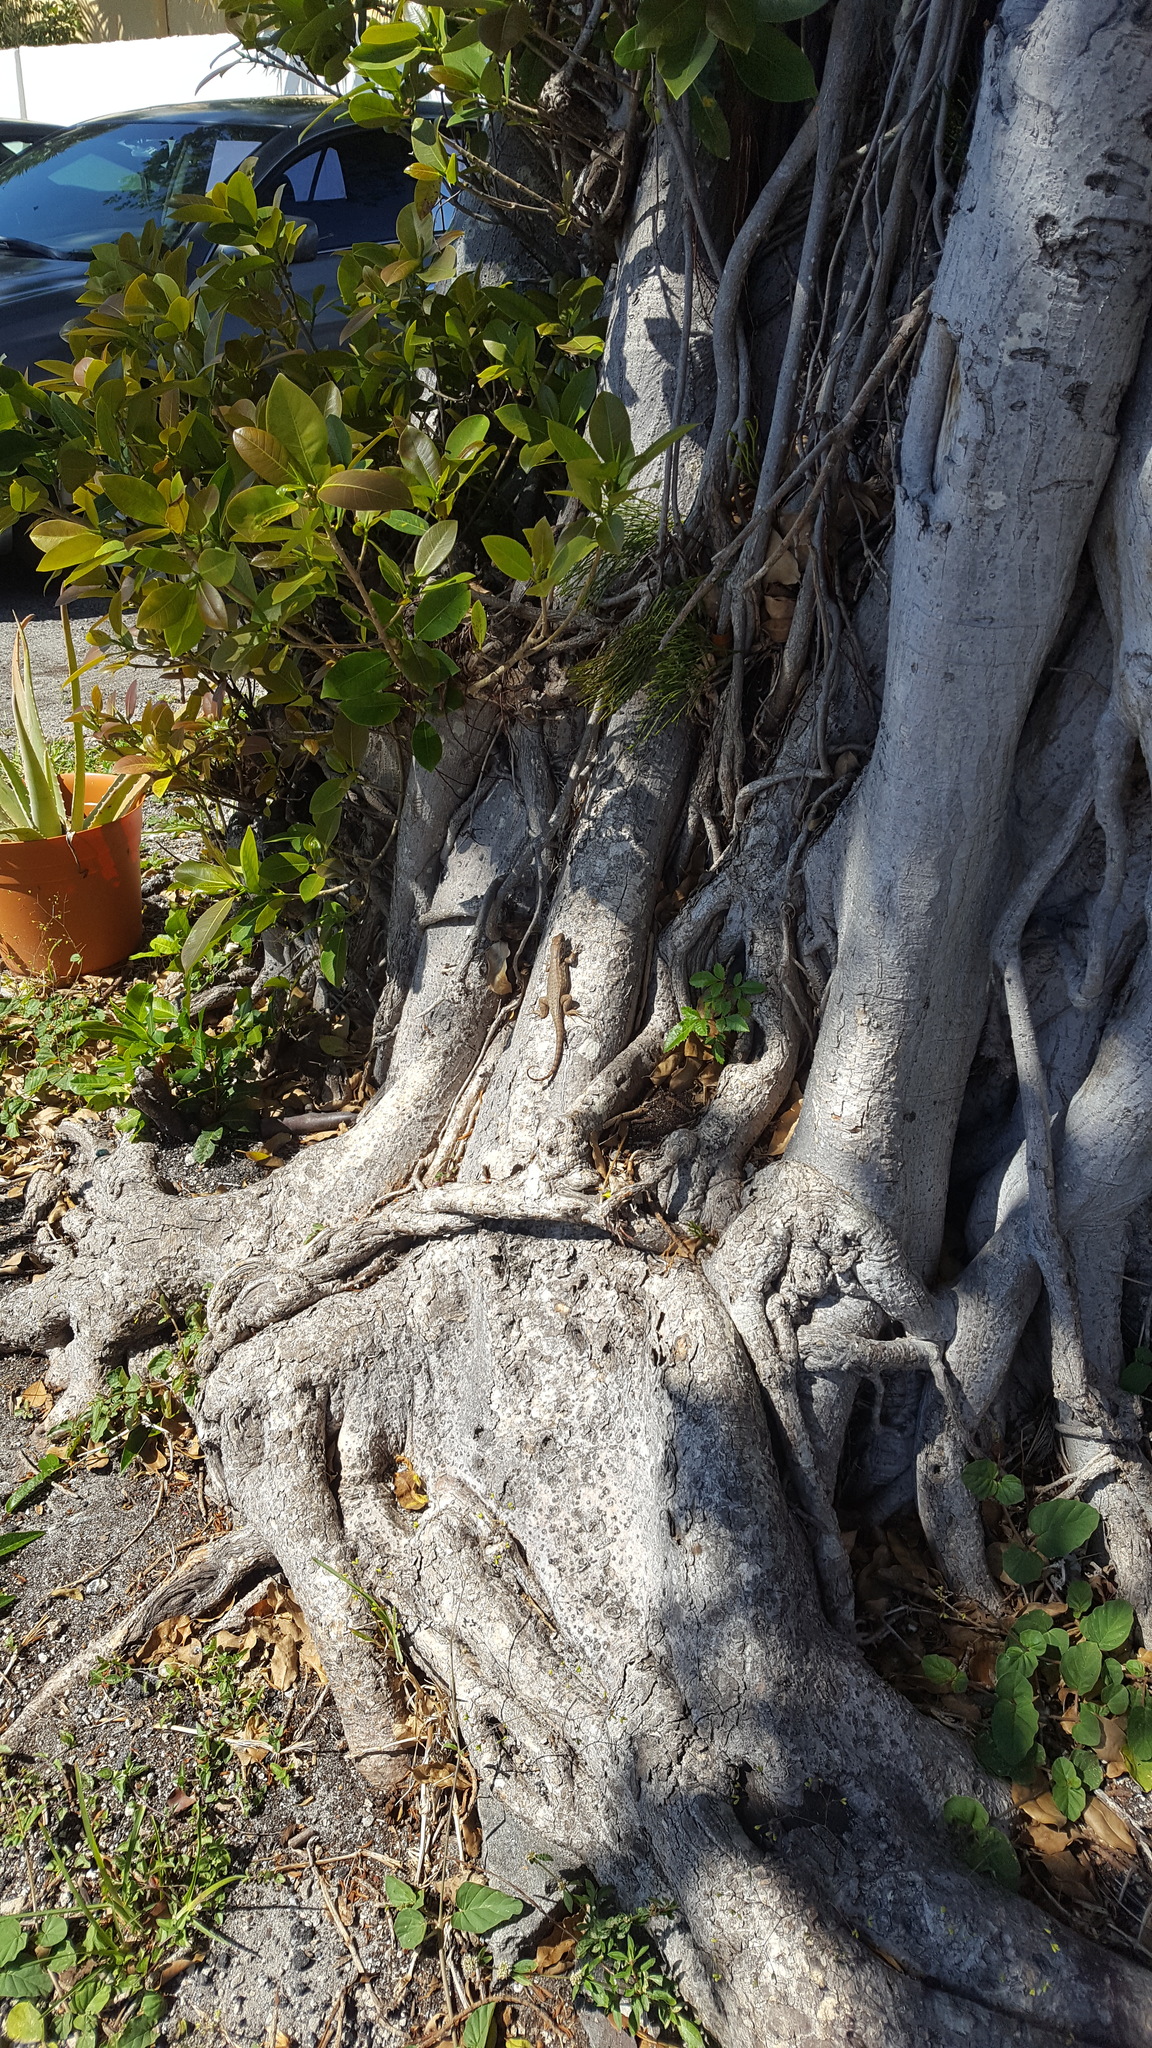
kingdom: Animalia
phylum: Chordata
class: Squamata
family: Leiocephalidae
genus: Leiocephalus
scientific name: Leiocephalus carinatus
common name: Northern curly-tailed lizard
